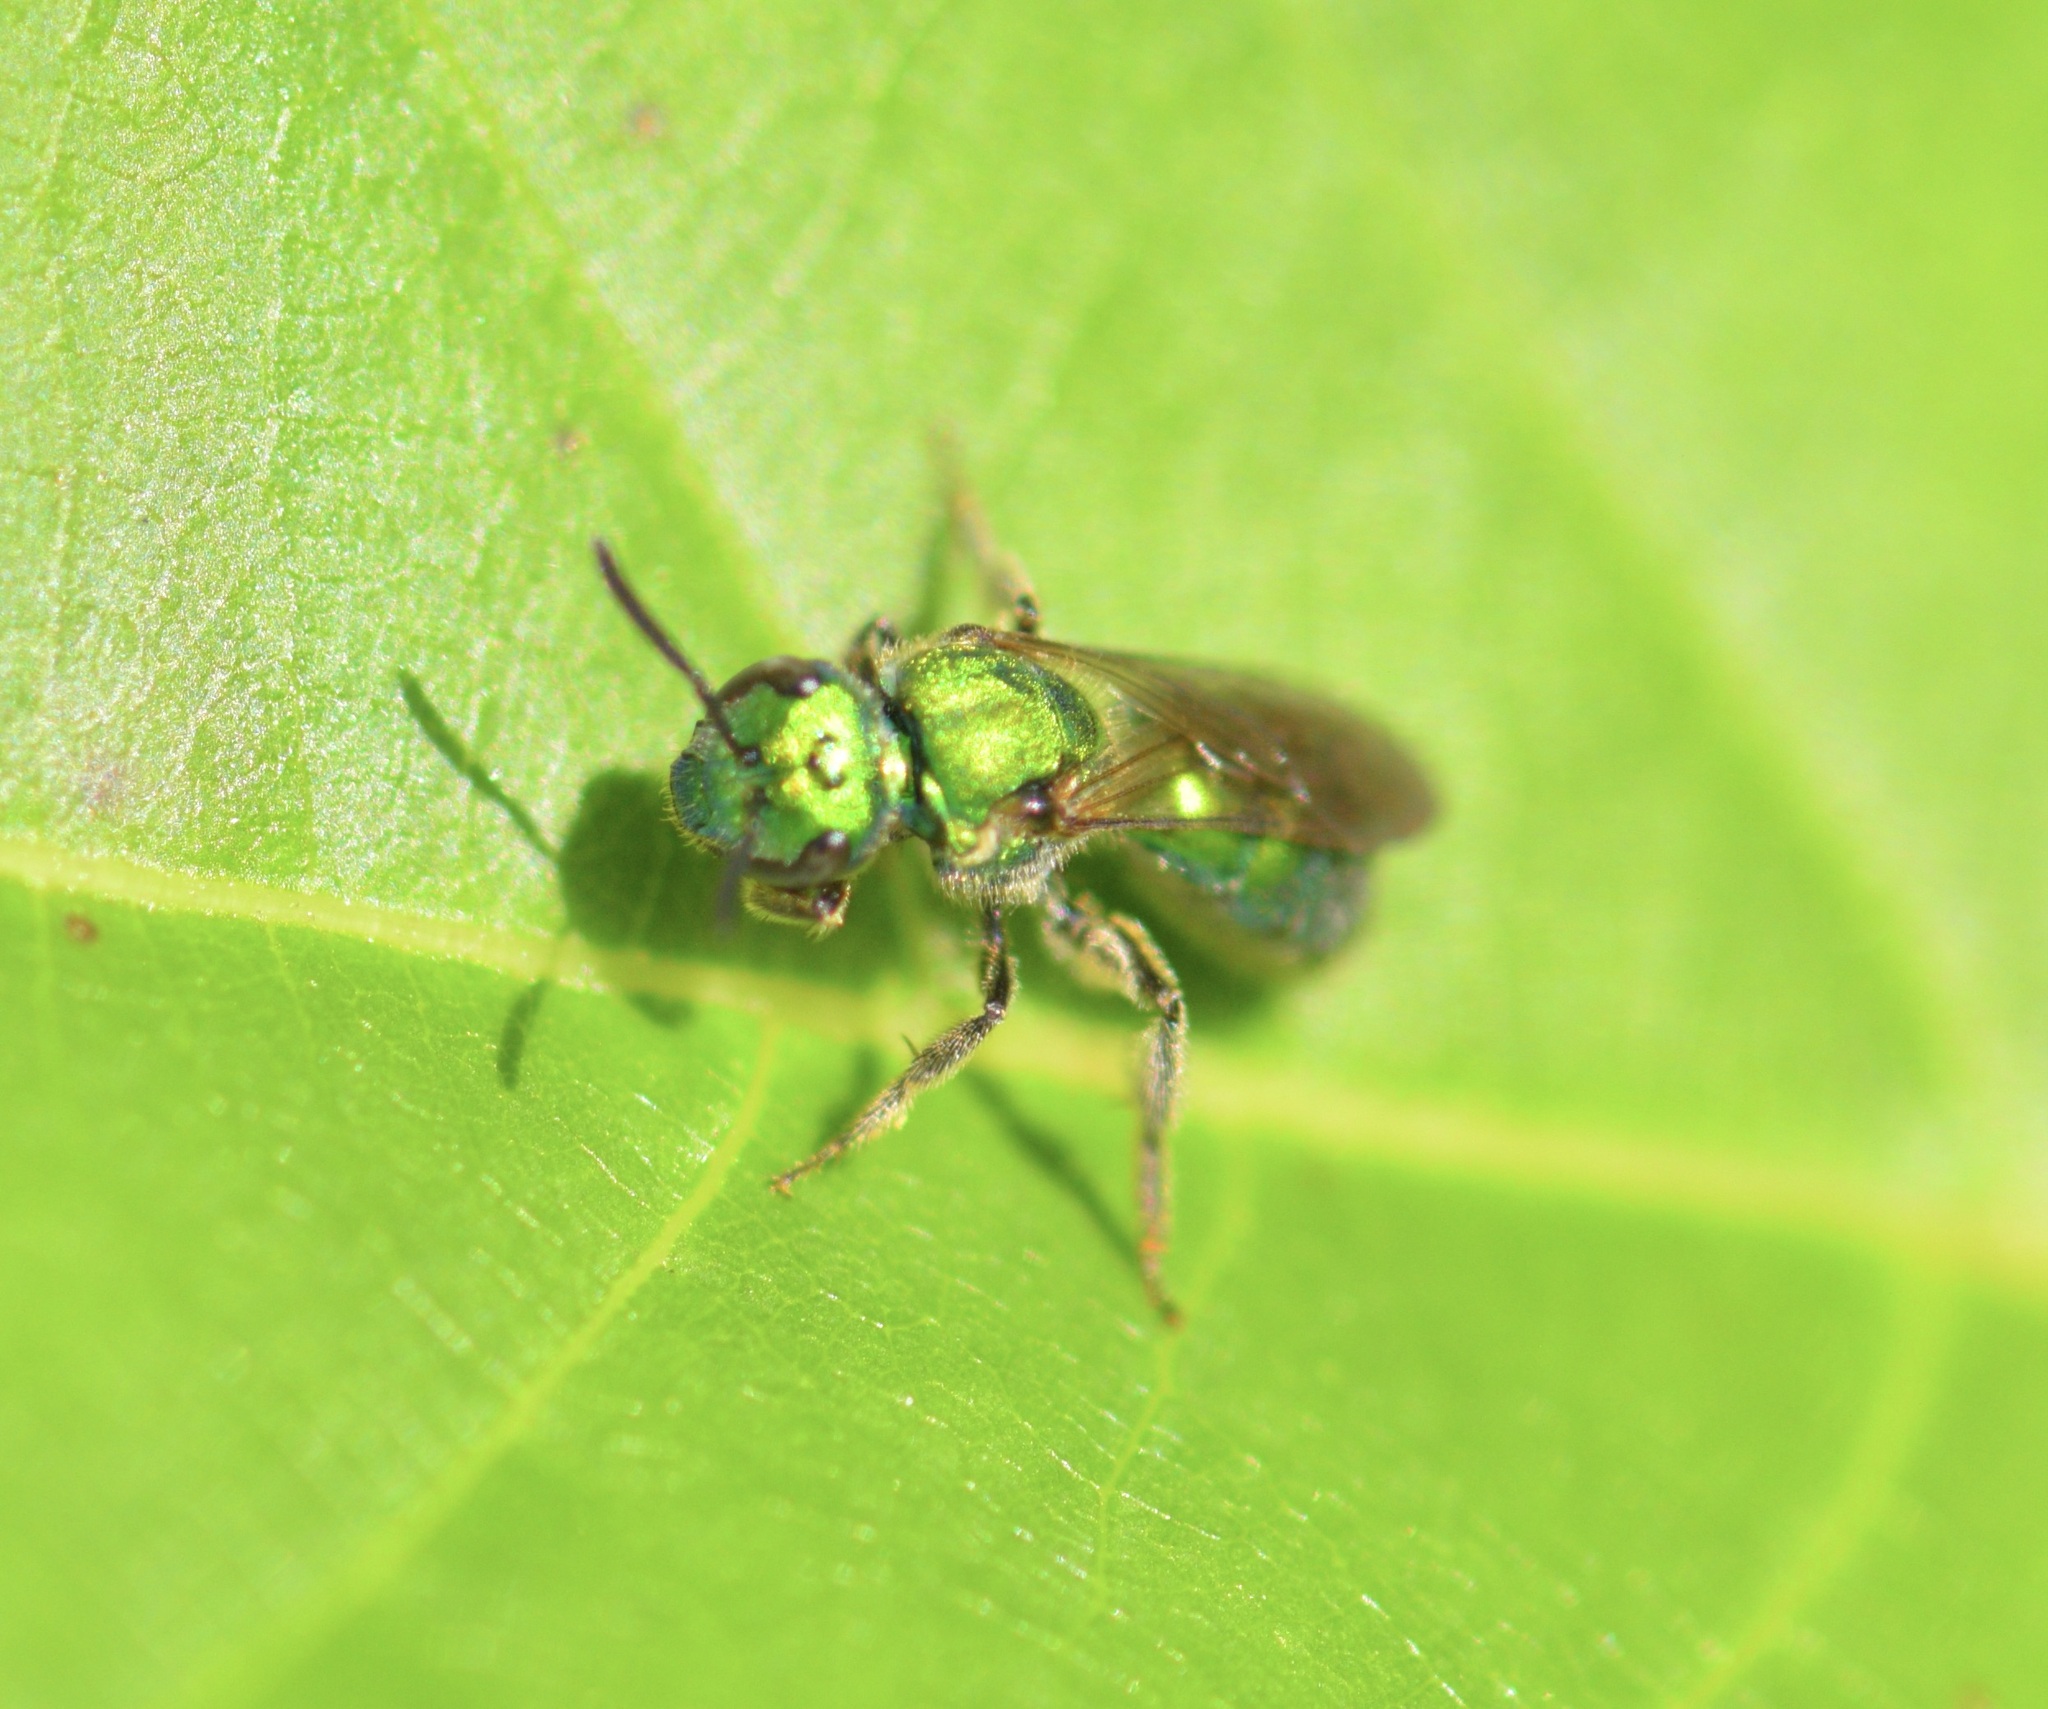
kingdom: Animalia
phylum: Arthropoda
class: Insecta
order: Hymenoptera
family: Halictidae
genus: Augochlora
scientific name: Augochlora pura
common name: Pure green sweat bee
